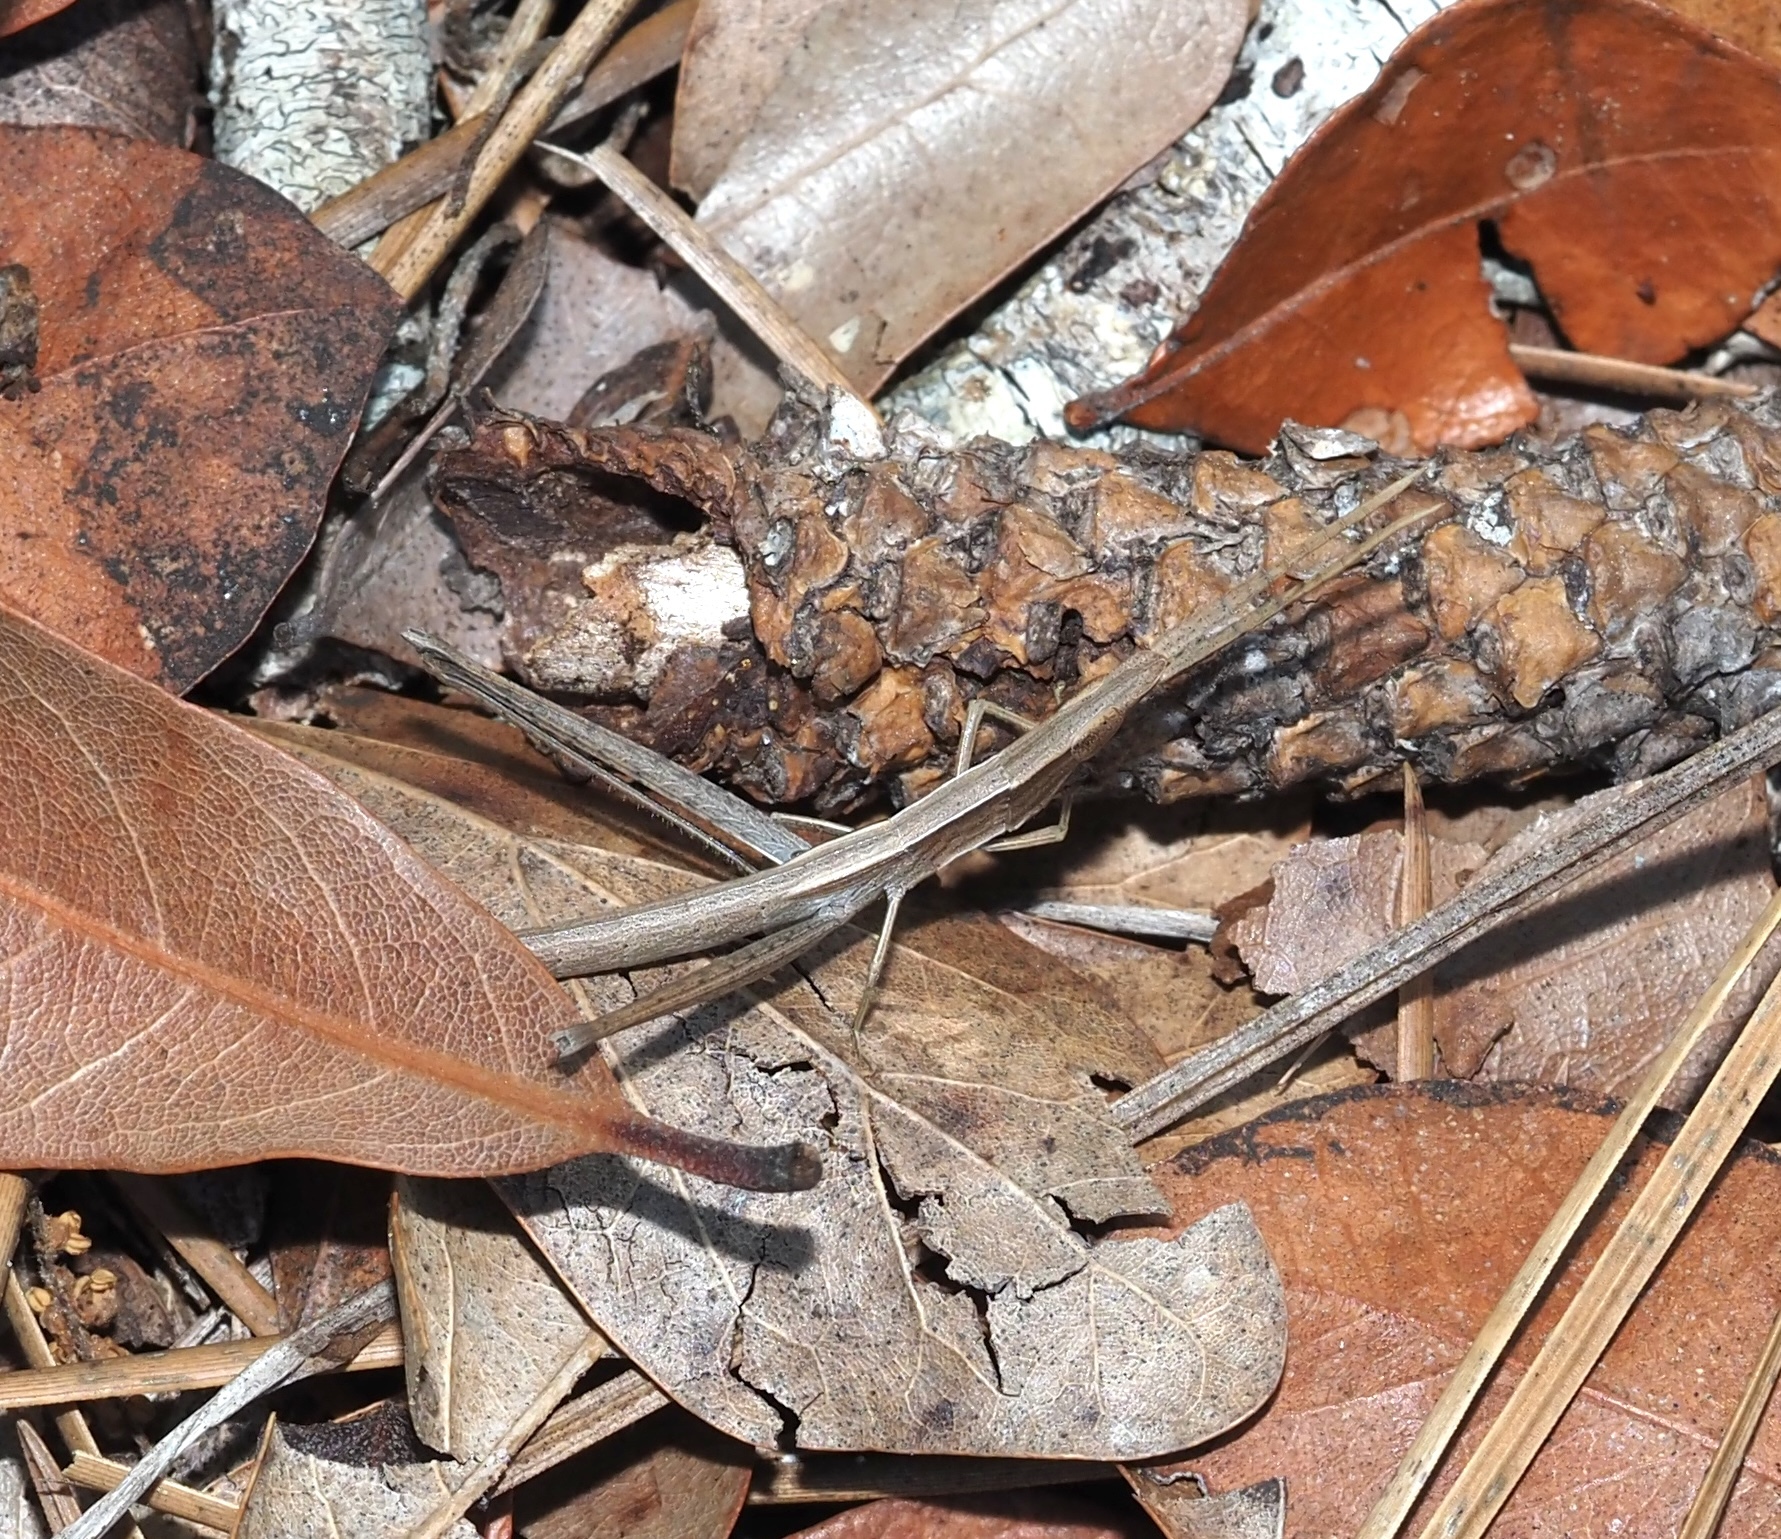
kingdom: Animalia
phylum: Arthropoda
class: Insecta
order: Orthoptera
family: Acrididae
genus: Achurum
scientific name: Achurum carinatum
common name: Long-headed toothpick grasshopper
